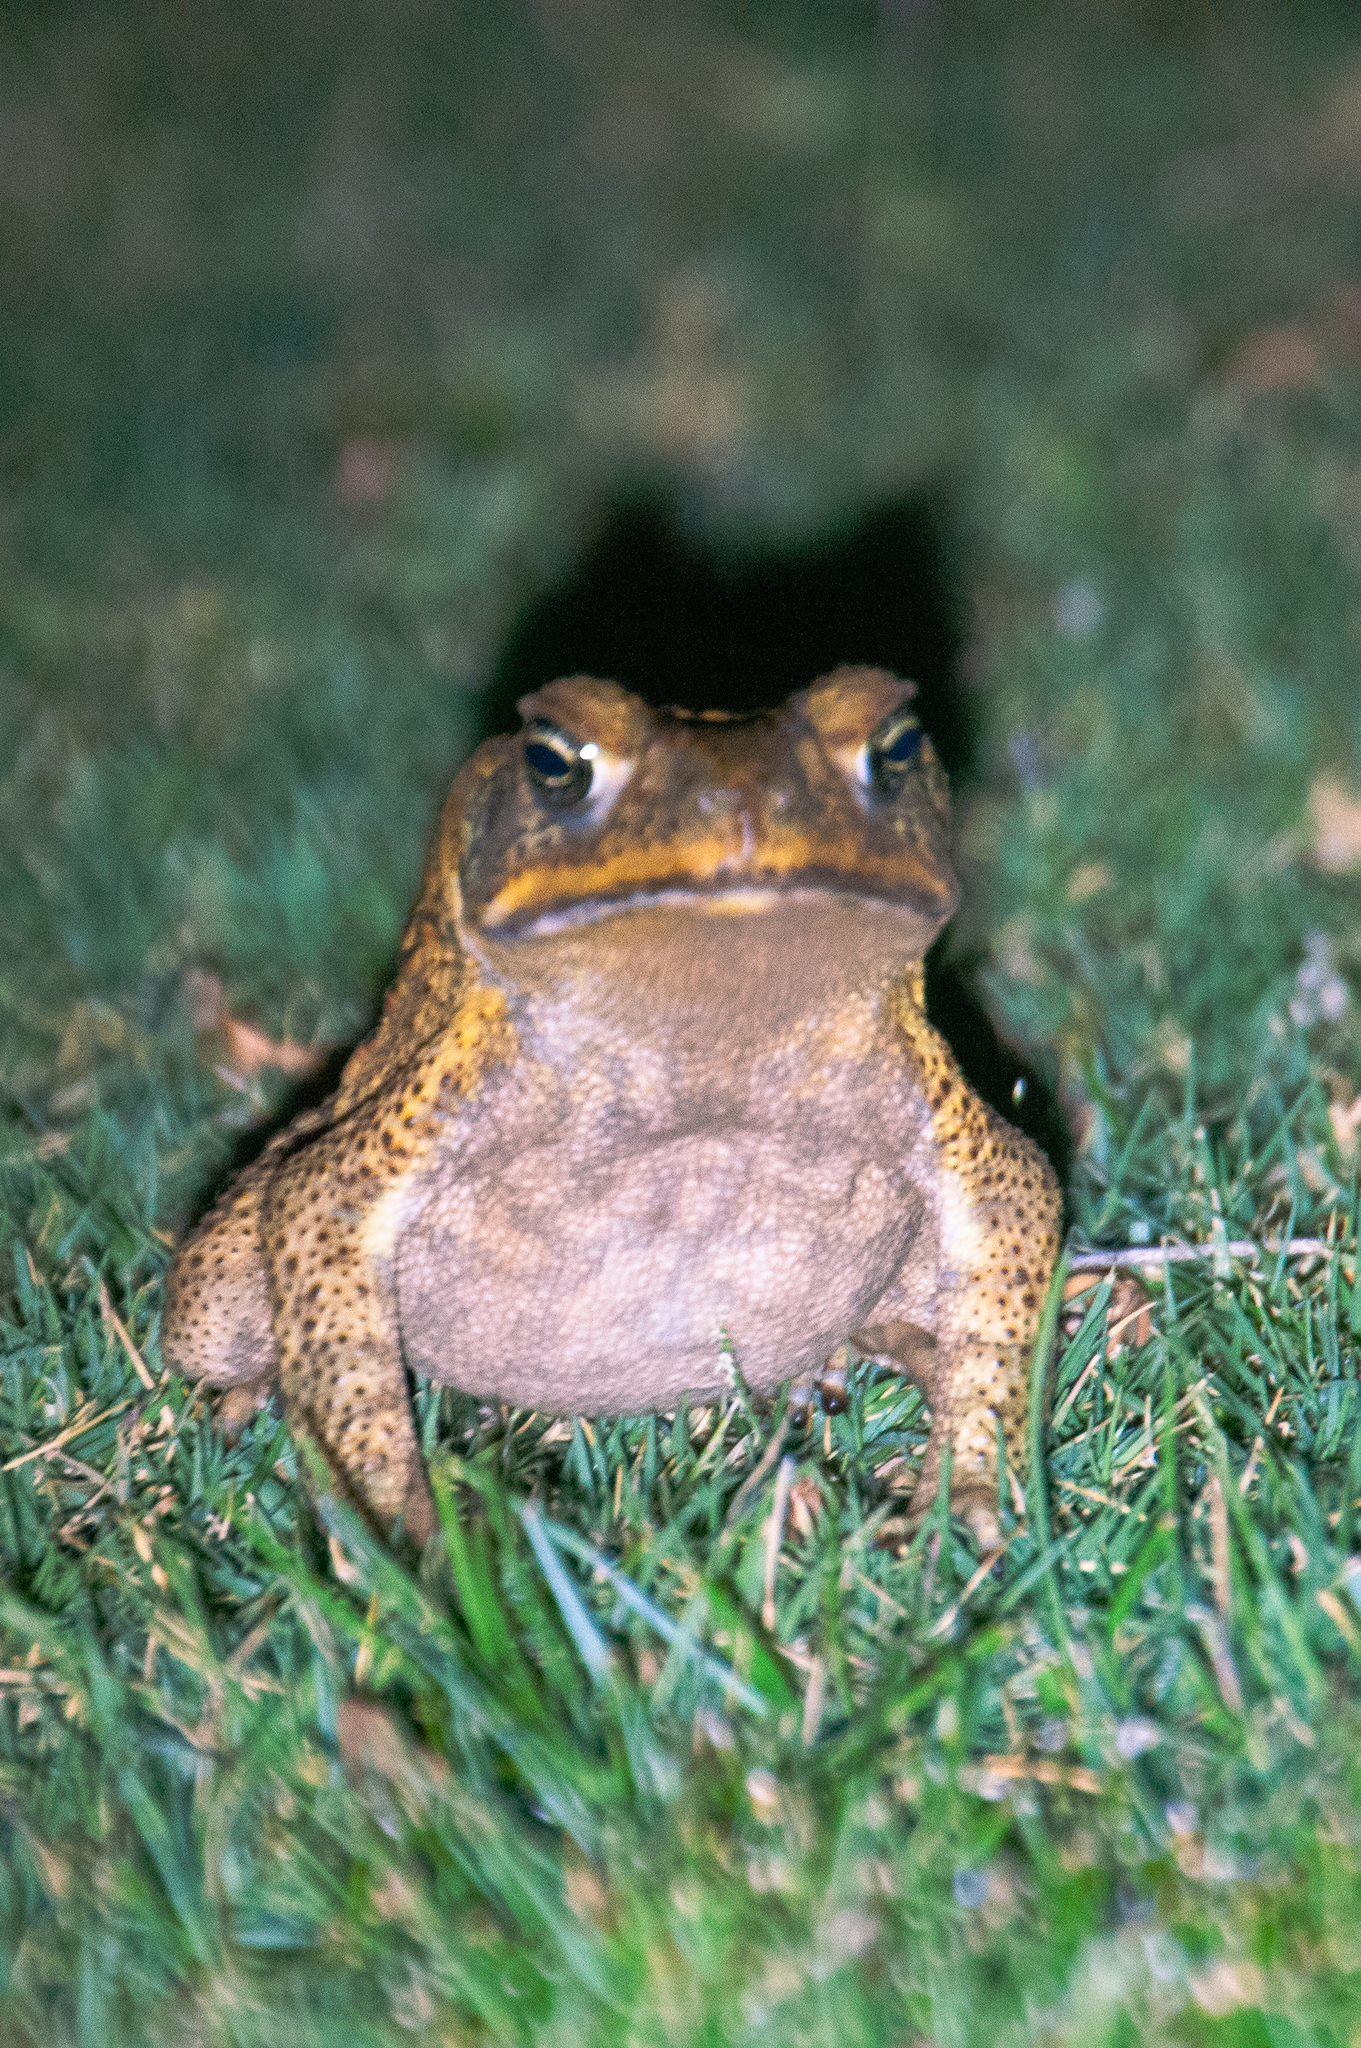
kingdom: Animalia
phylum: Chordata
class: Amphibia
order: Anura
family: Bufonidae
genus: Rhinella
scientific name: Rhinella marina
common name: Cane toad
